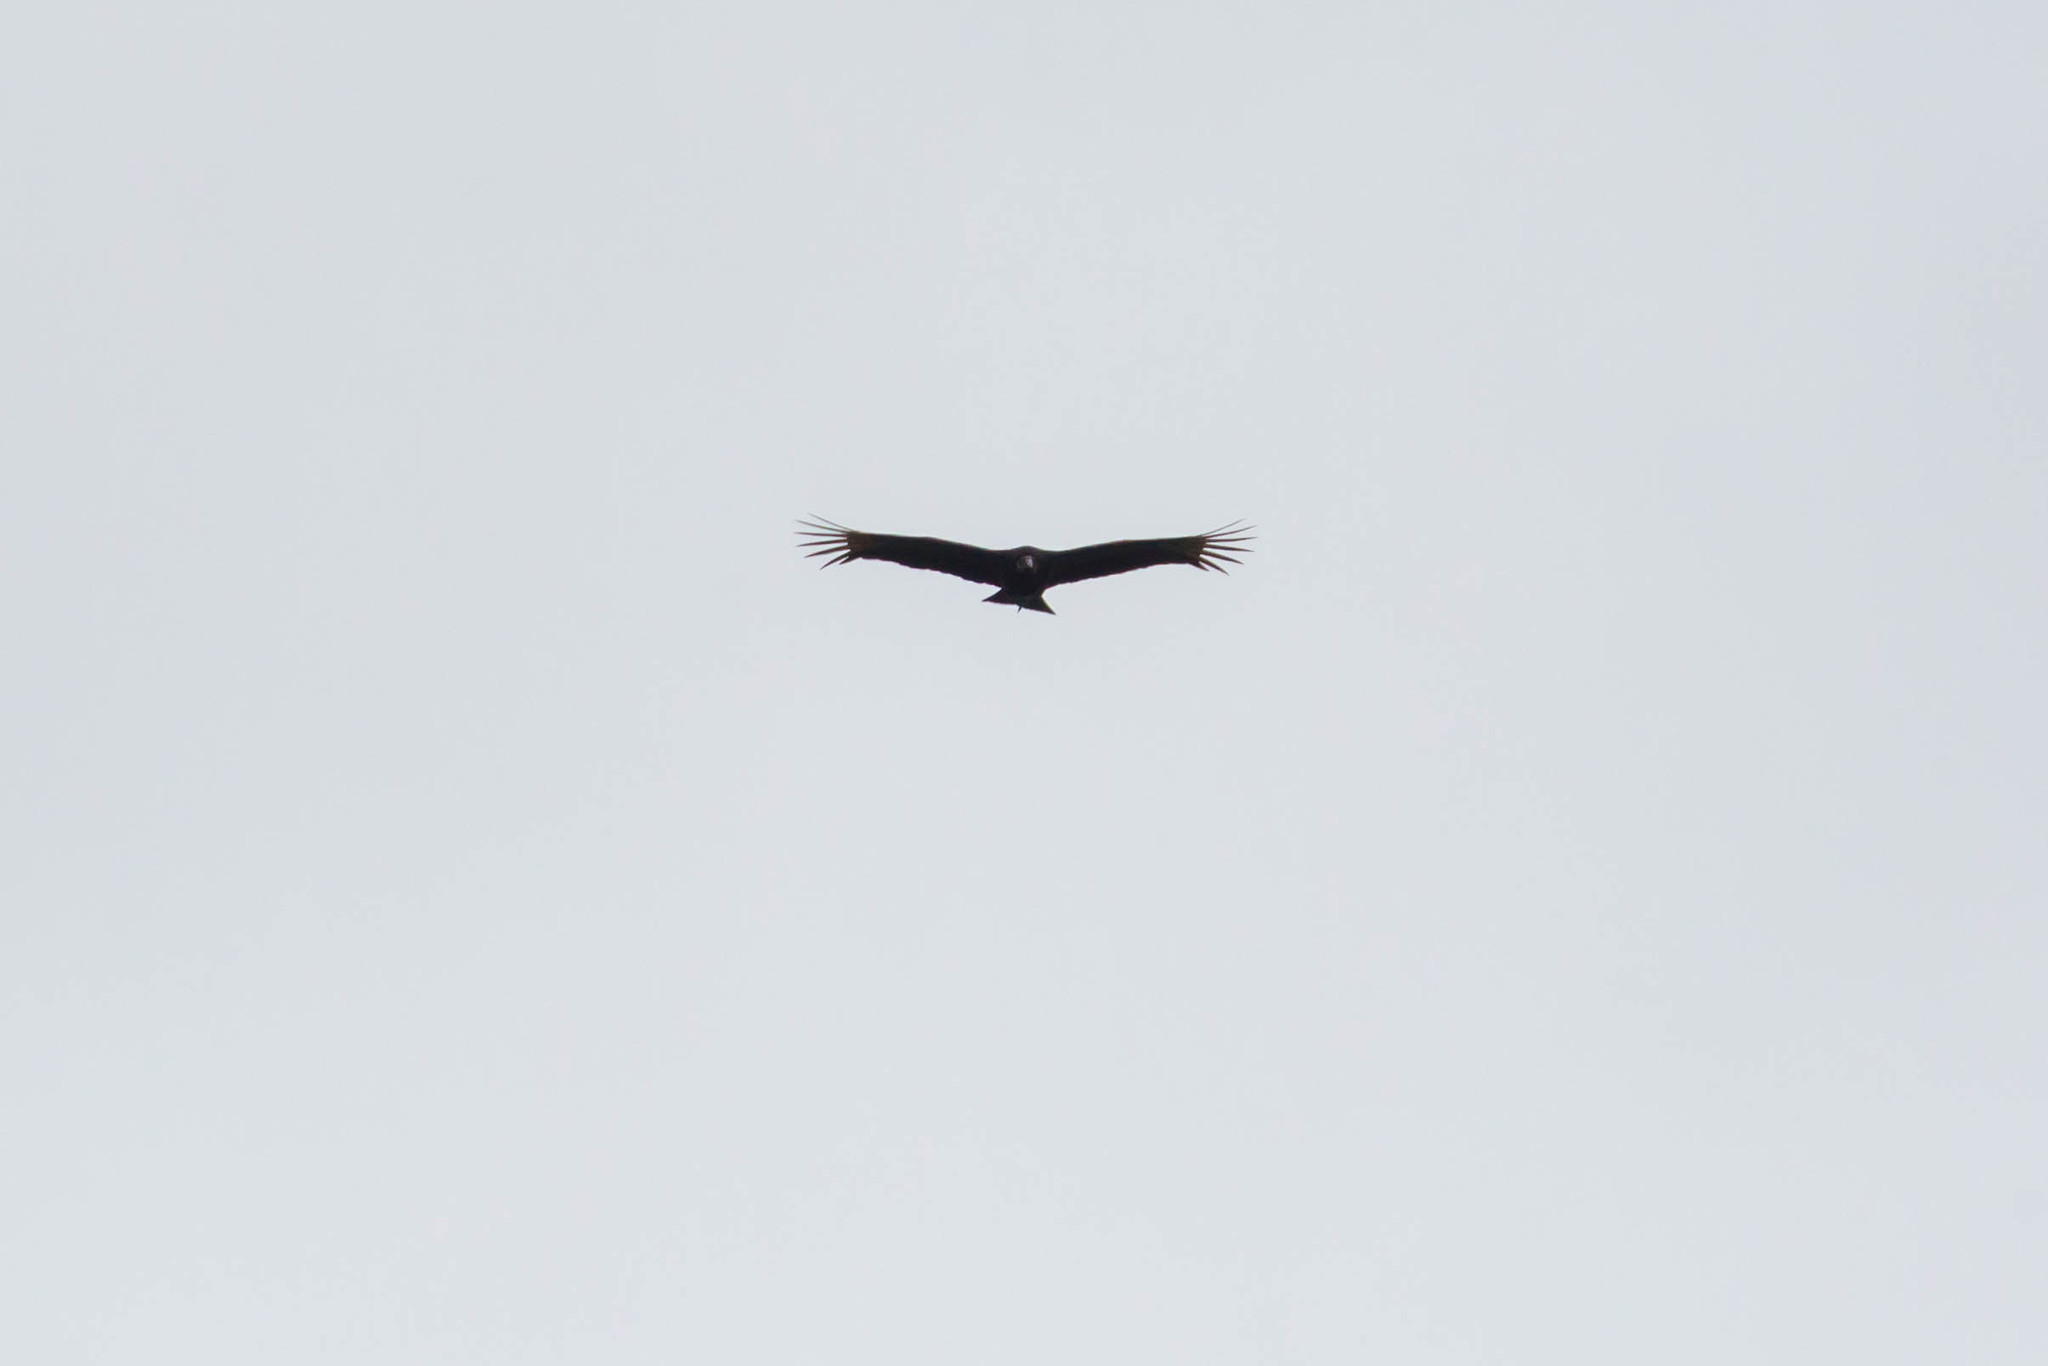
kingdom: Animalia
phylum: Chordata
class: Aves
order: Accipitriformes
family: Cathartidae
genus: Coragyps
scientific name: Coragyps atratus
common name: Black vulture
